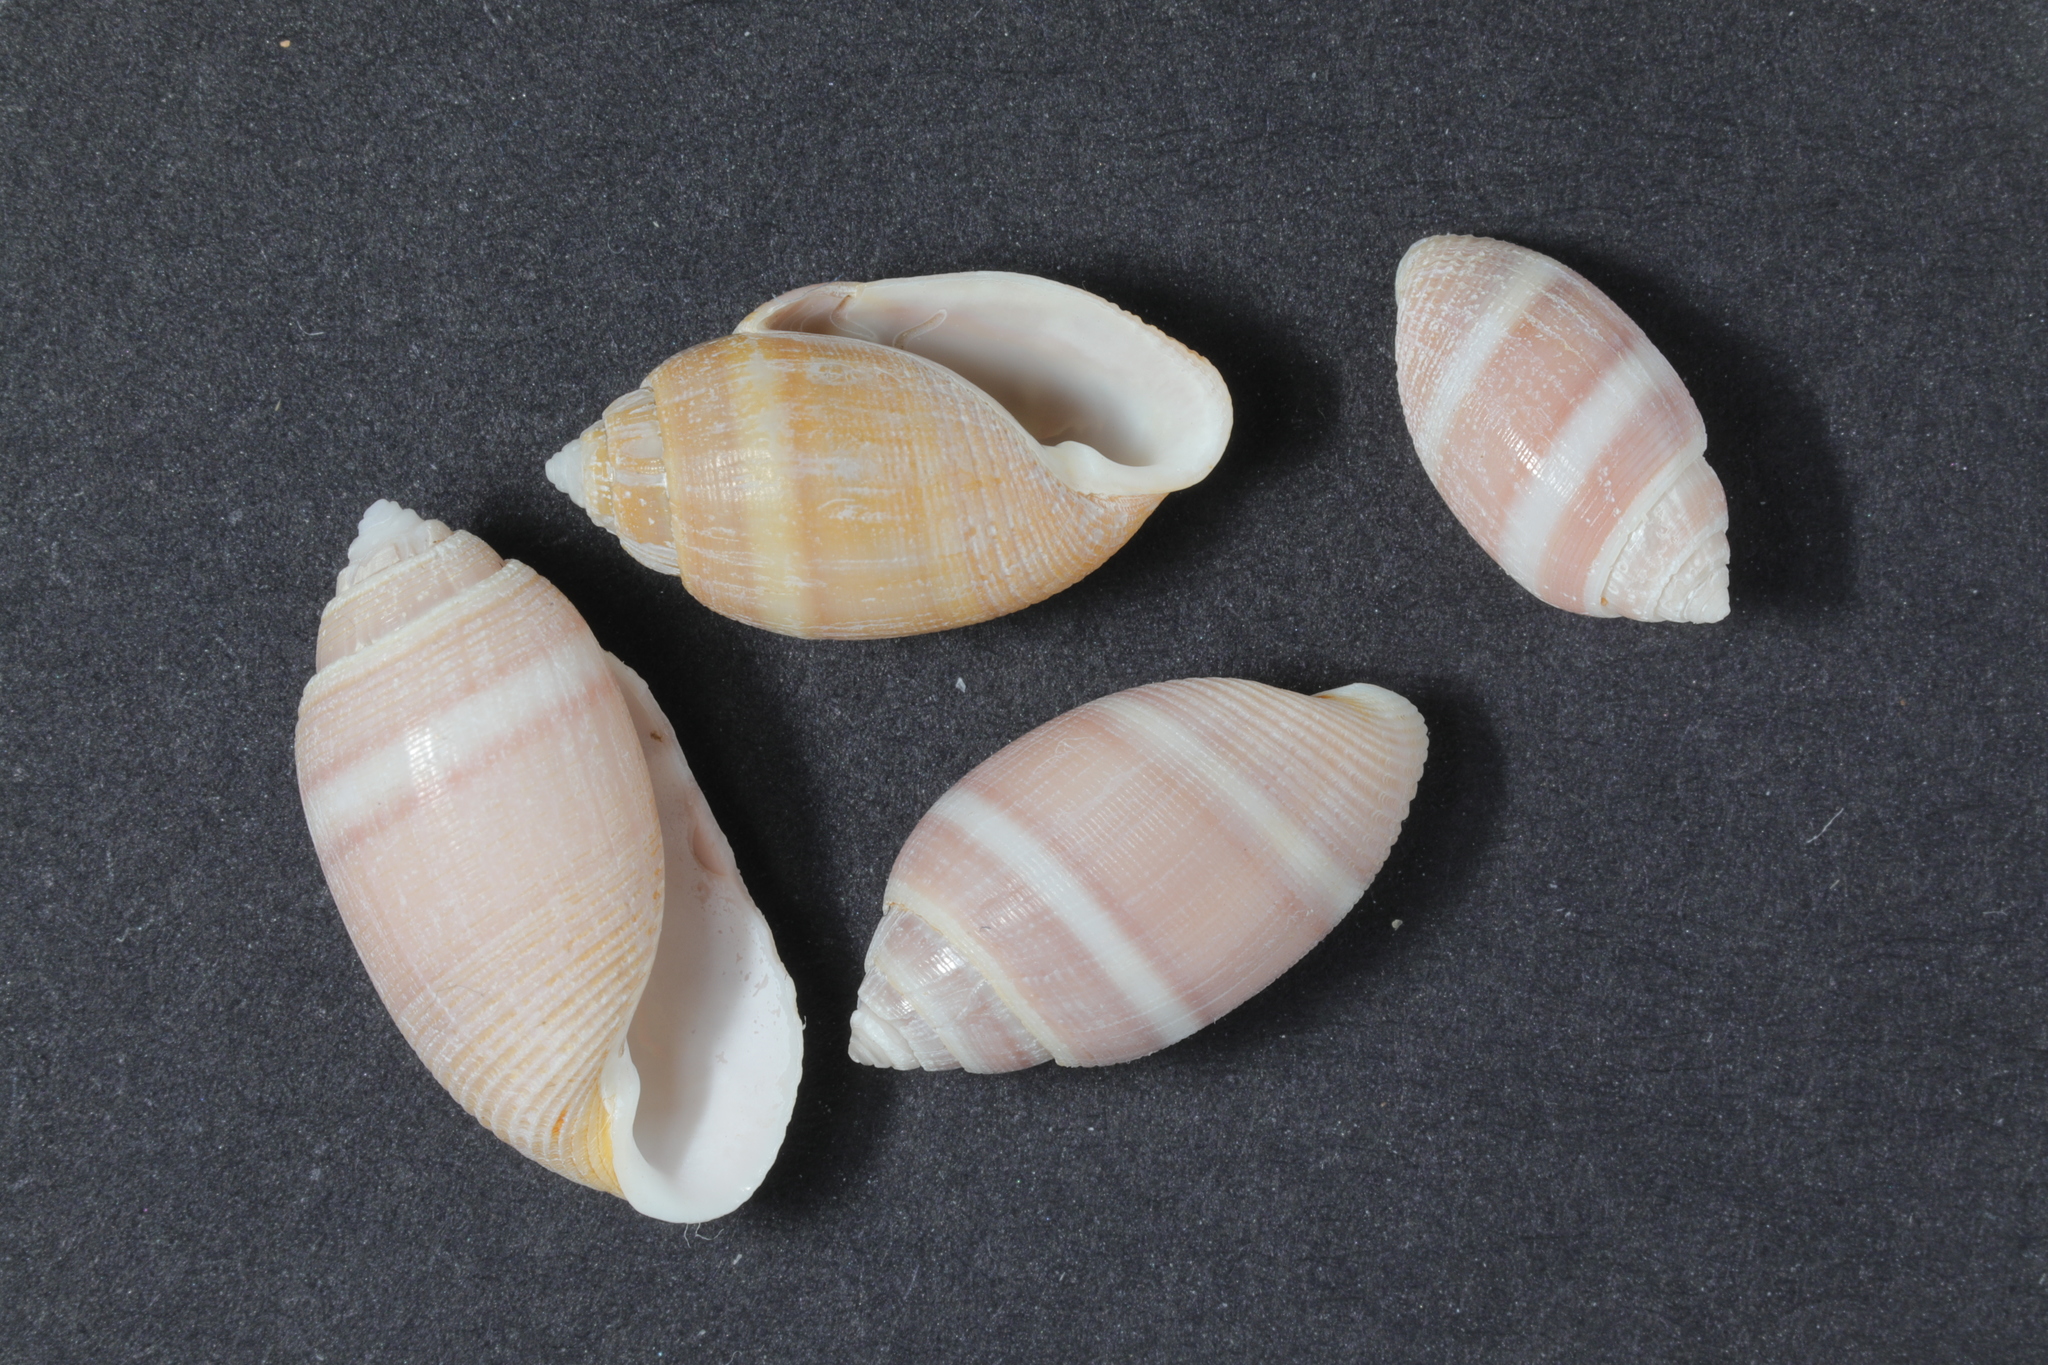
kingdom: Animalia
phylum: Mollusca
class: Gastropoda
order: Cephalaspidea
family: Acteonidae
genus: Acteon
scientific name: Acteon tornatilis
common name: European acteon
